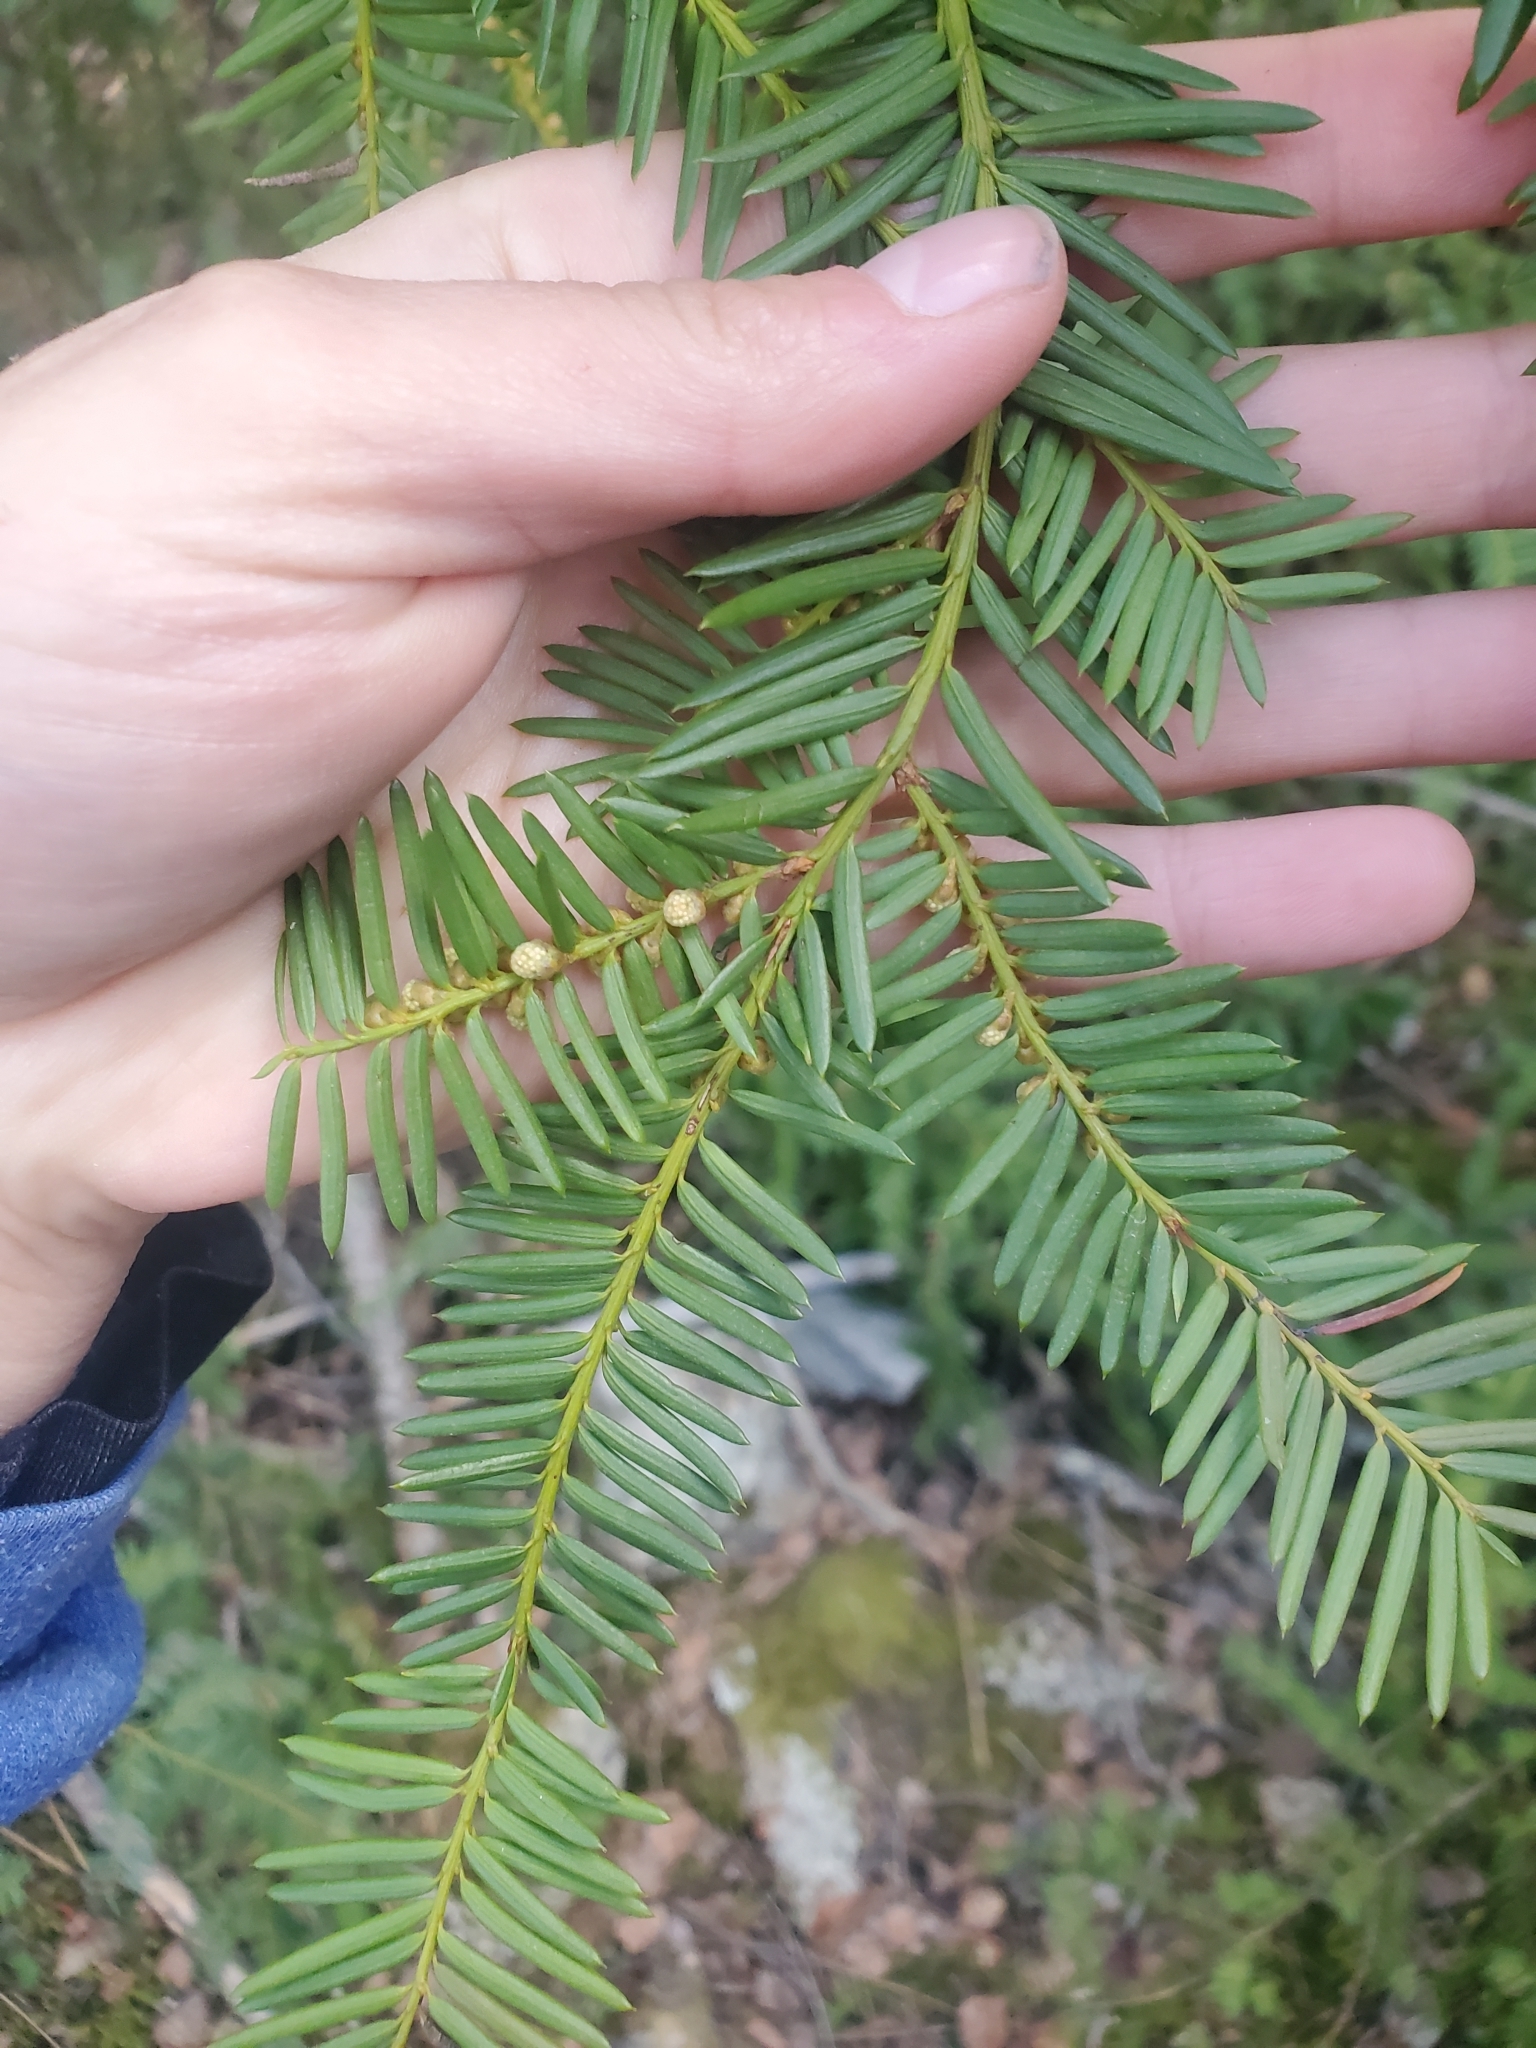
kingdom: Plantae
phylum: Tracheophyta
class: Pinopsida
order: Pinales
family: Taxaceae
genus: Taxus
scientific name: Taxus brevifolia
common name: Pacific yew
